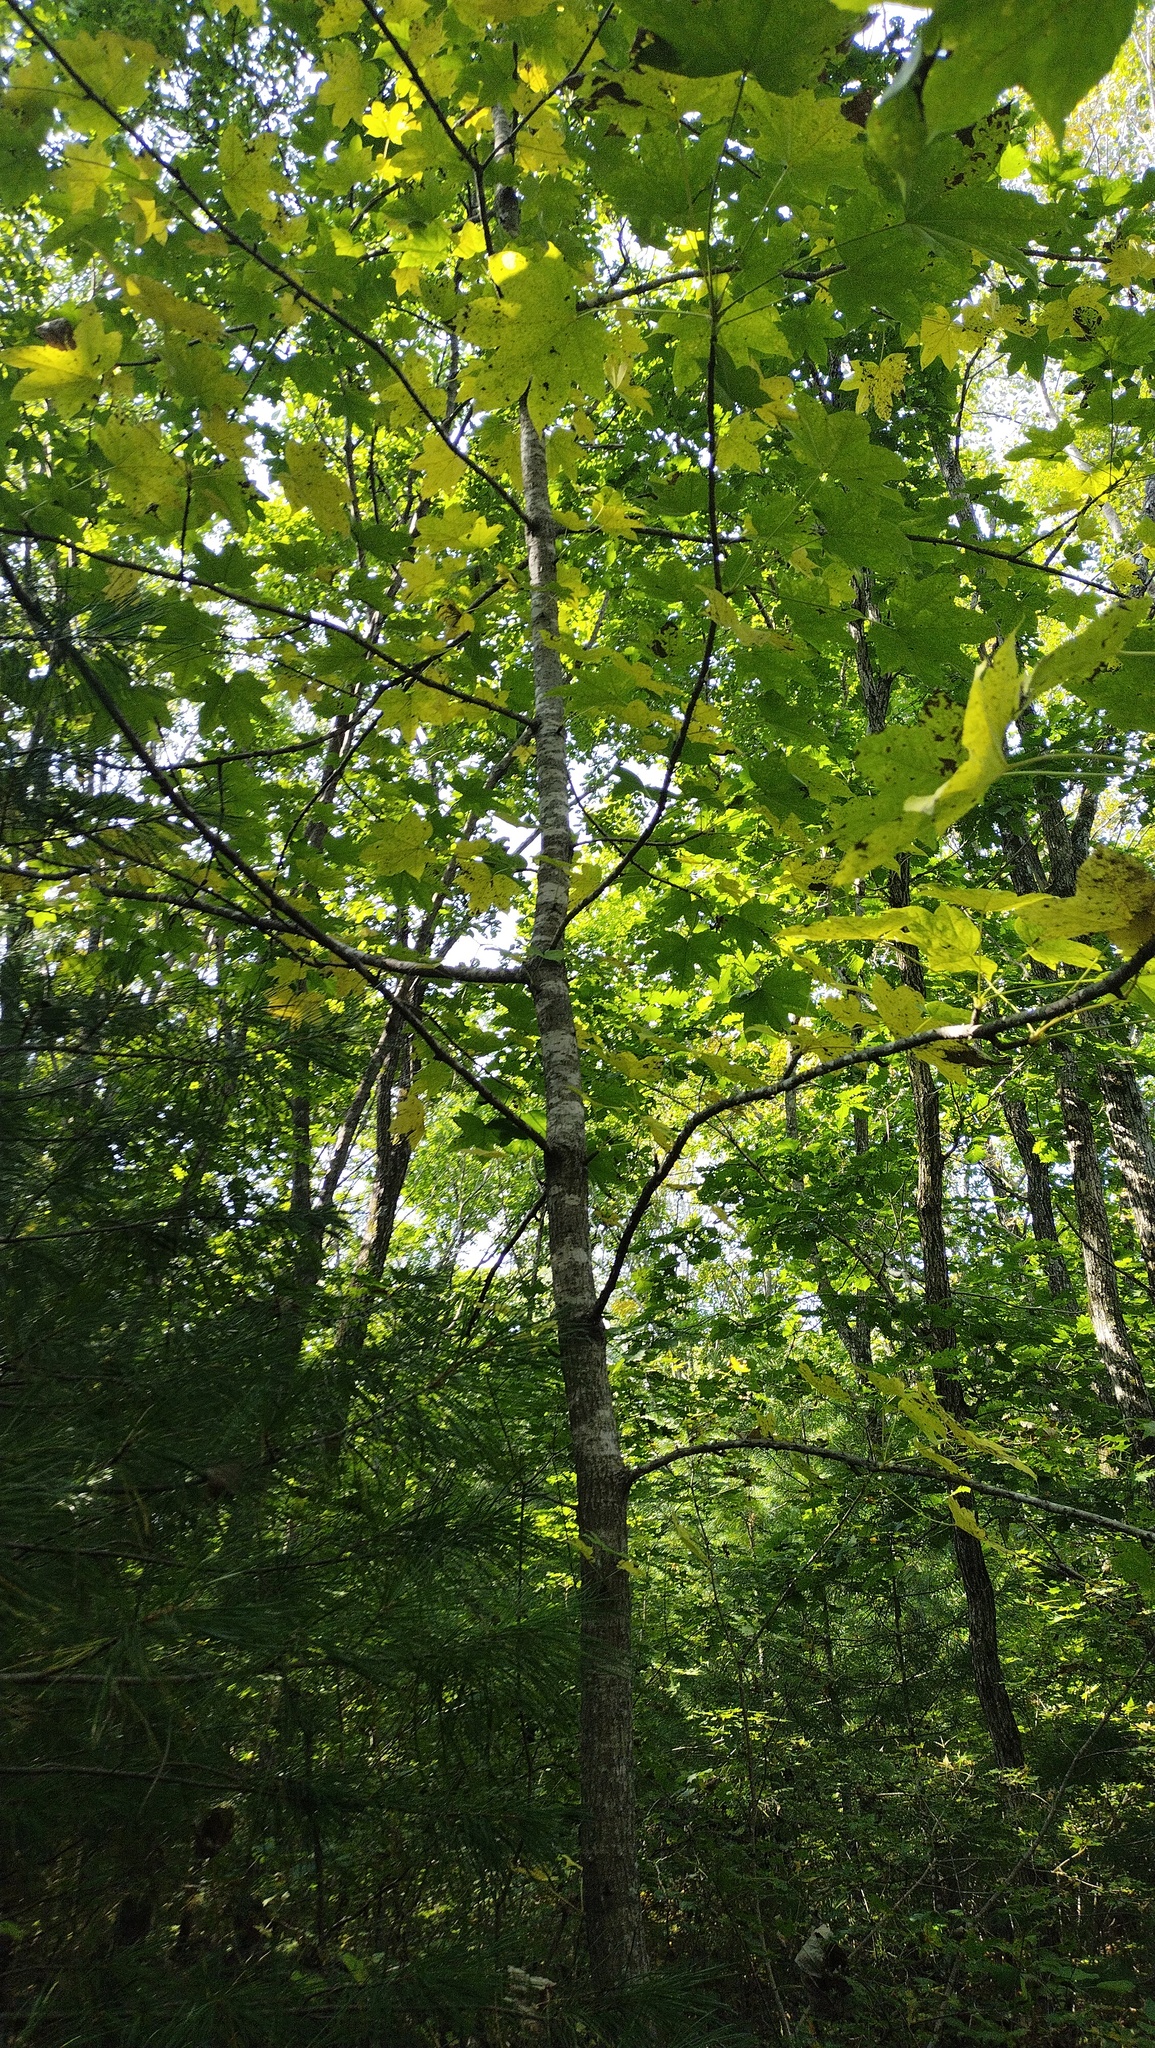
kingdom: Plantae
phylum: Tracheophyta
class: Magnoliopsida
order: Apiales
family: Araliaceae
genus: Kalopanax
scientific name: Kalopanax septemlobus
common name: Castor aralia
